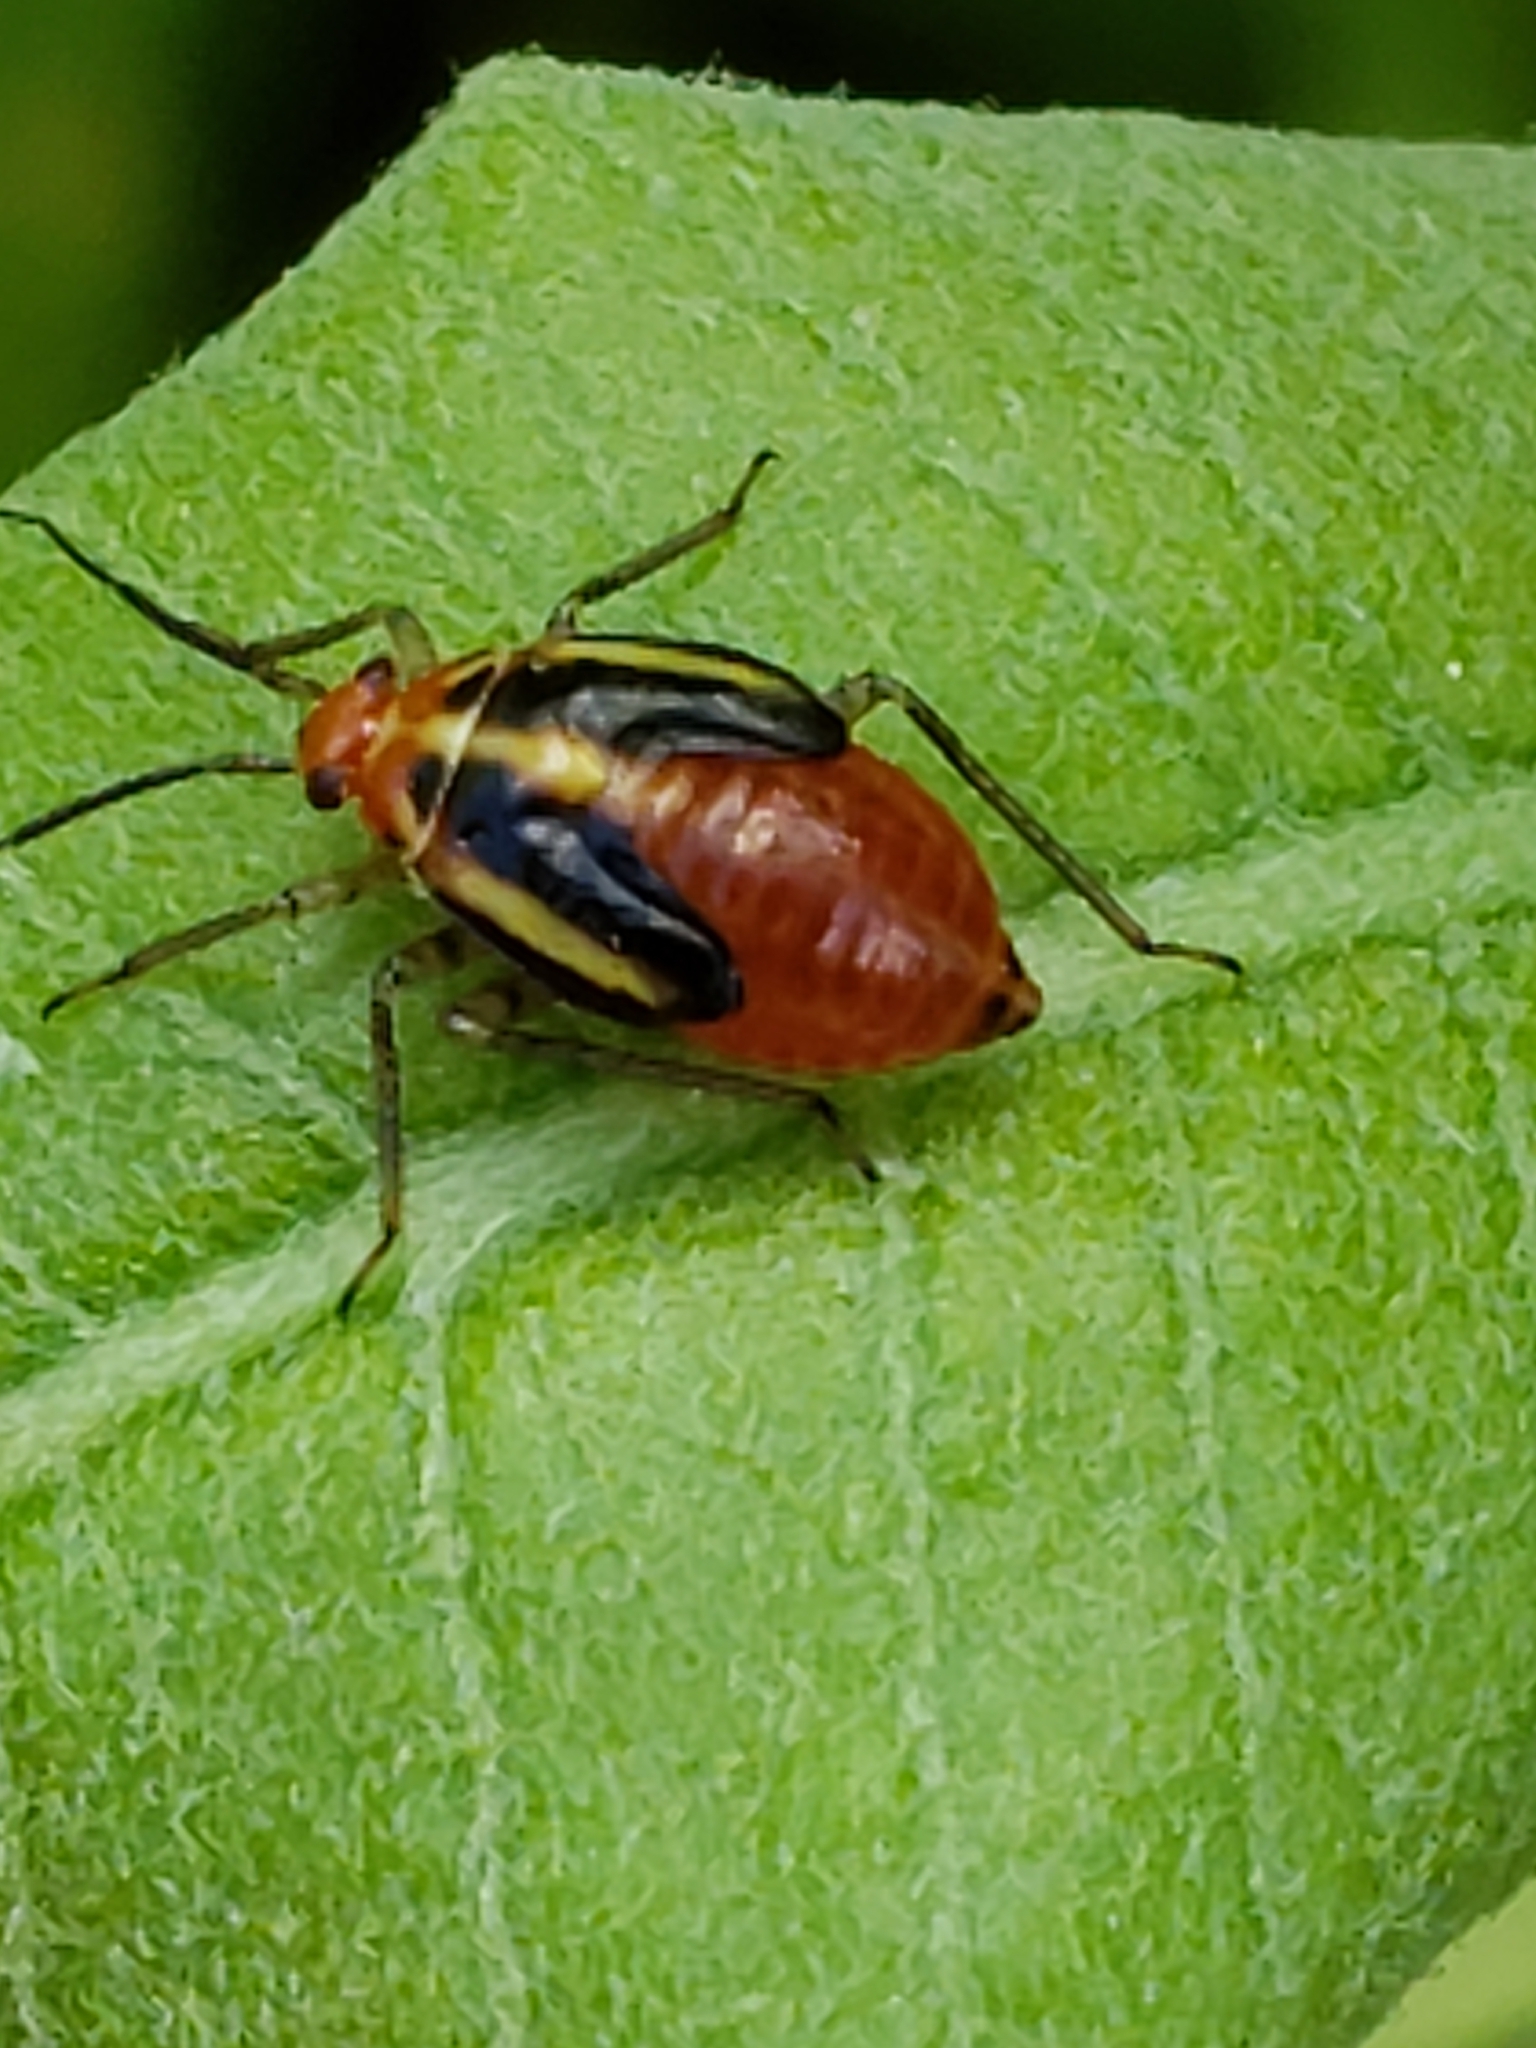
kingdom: Animalia
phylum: Arthropoda
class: Insecta
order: Hemiptera
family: Miridae
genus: Poecilocapsus
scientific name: Poecilocapsus lineatus
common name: Four-lined plant bug
